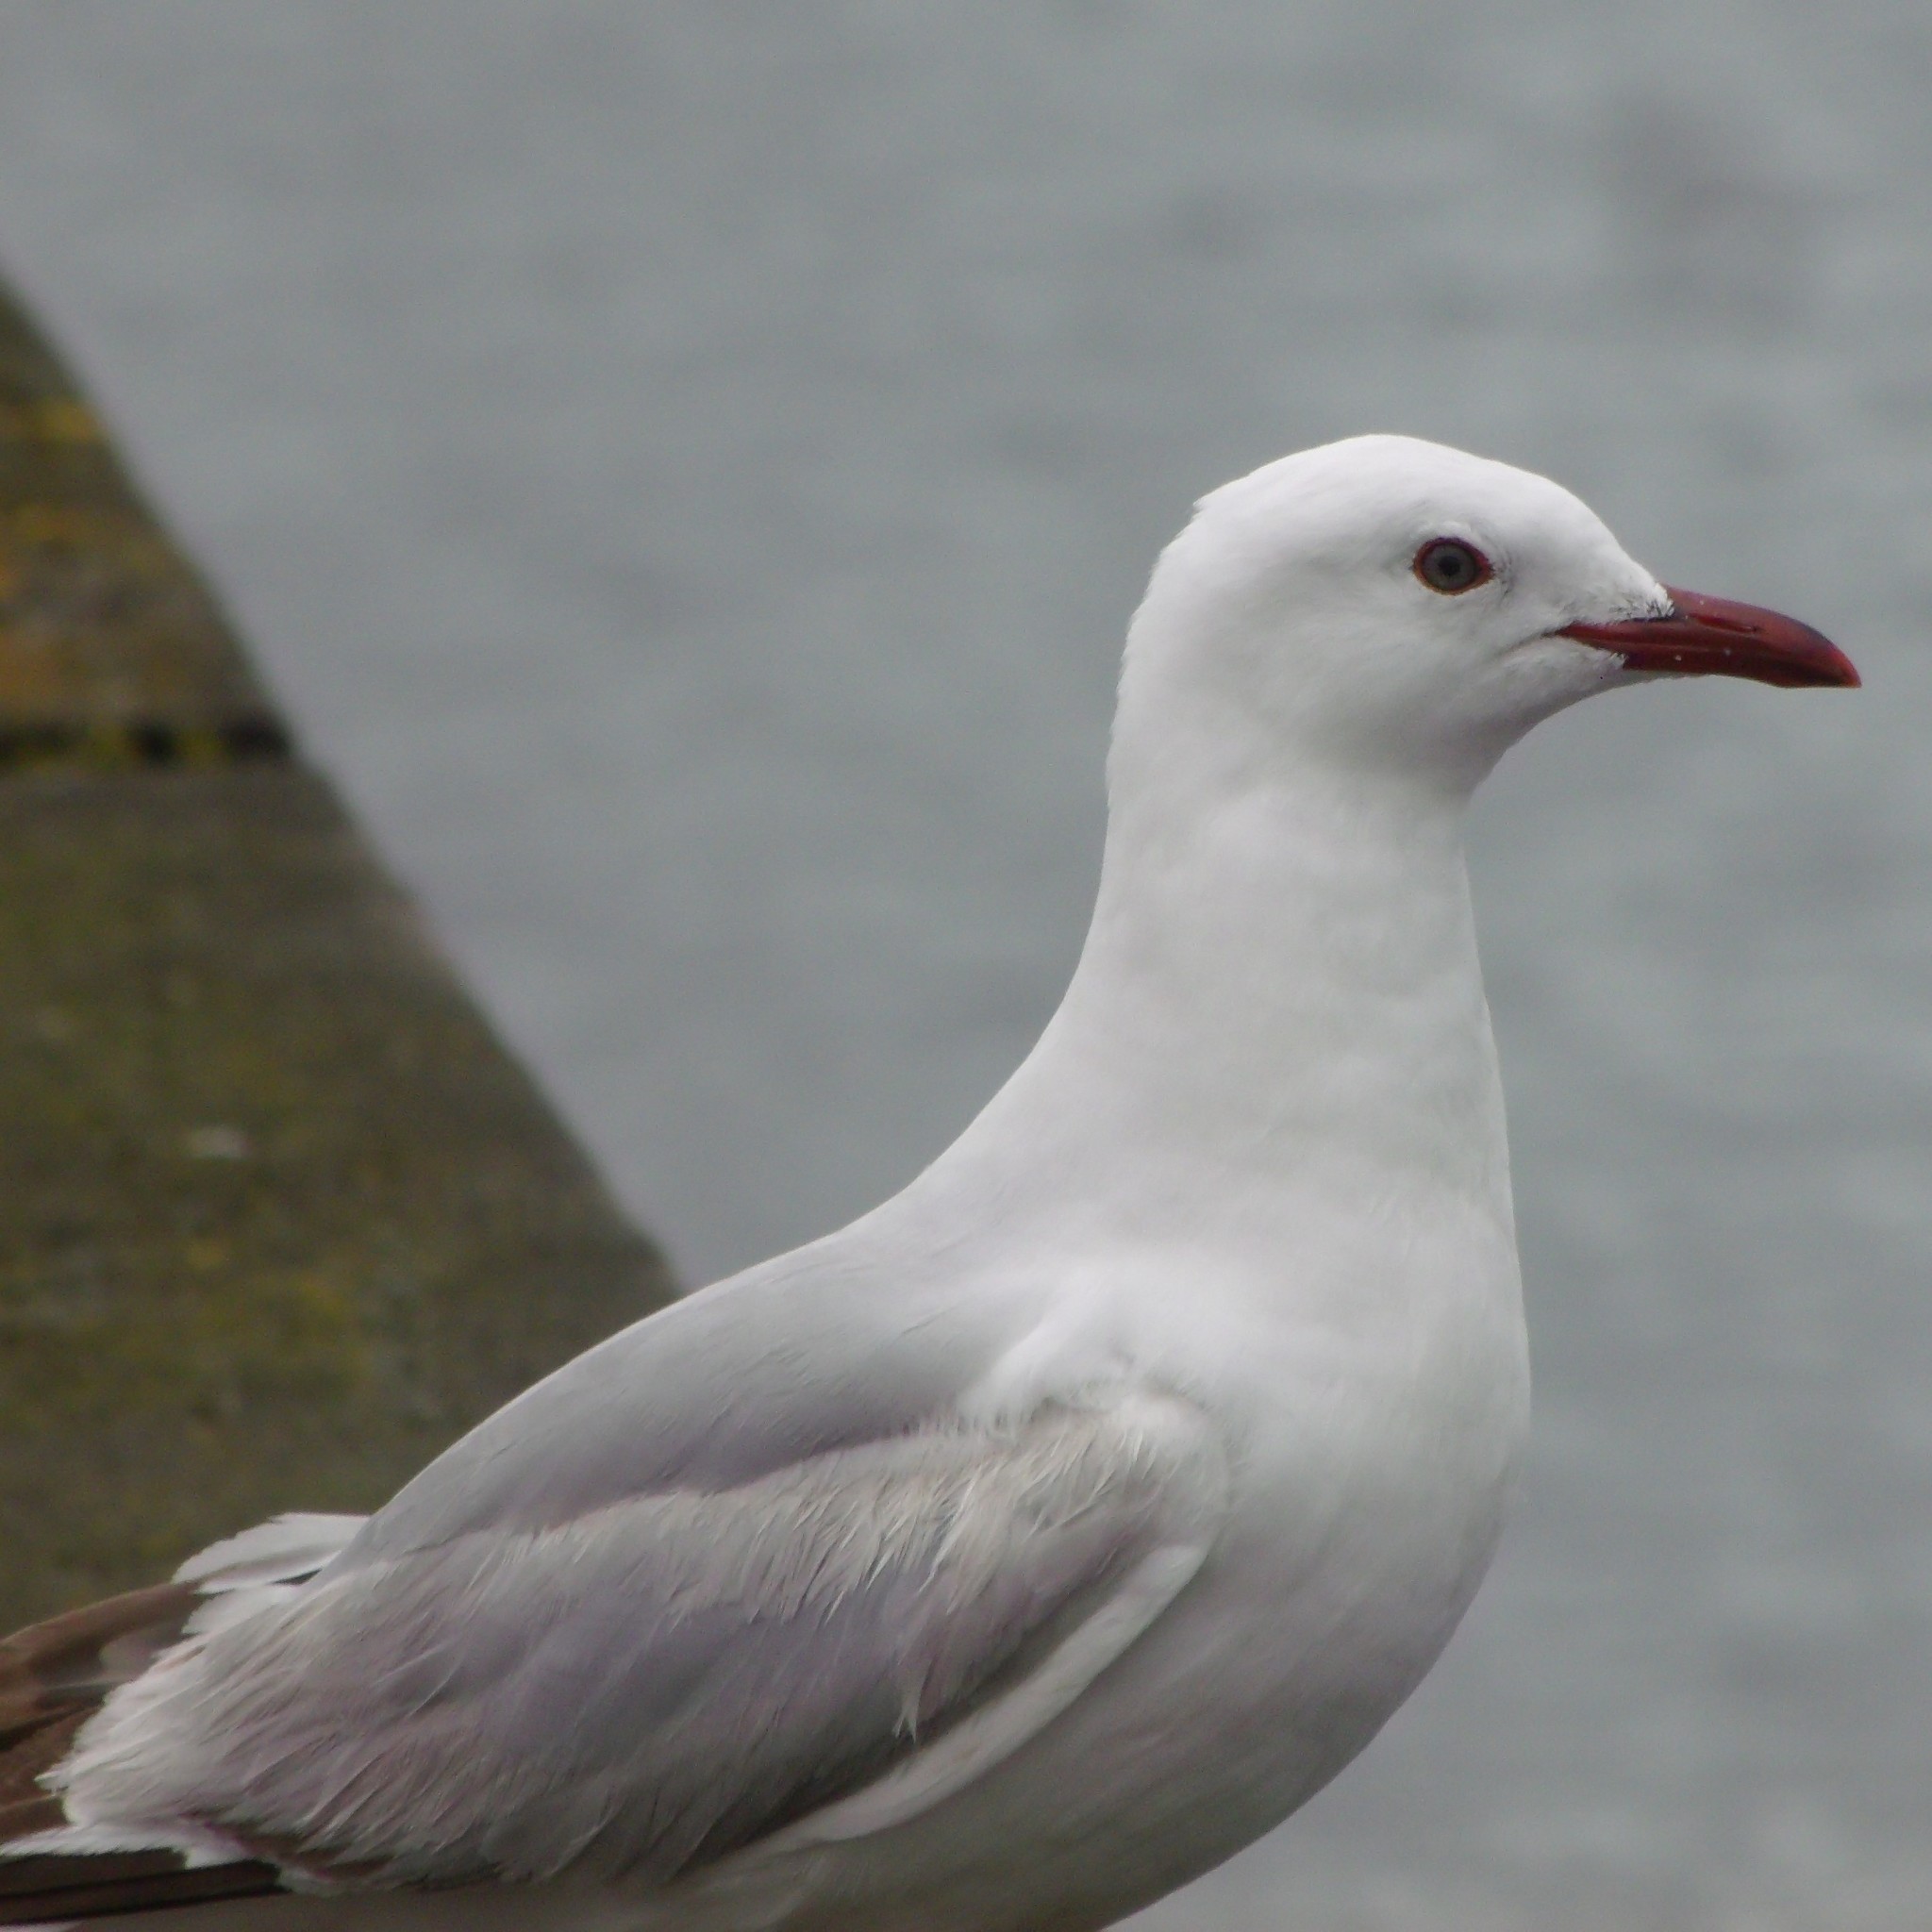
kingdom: Animalia
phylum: Chordata
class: Aves
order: Charadriiformes
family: Laridae
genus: Chroicocephalus
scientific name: Chroicocephalus novaehollandiae
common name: Silver gull
